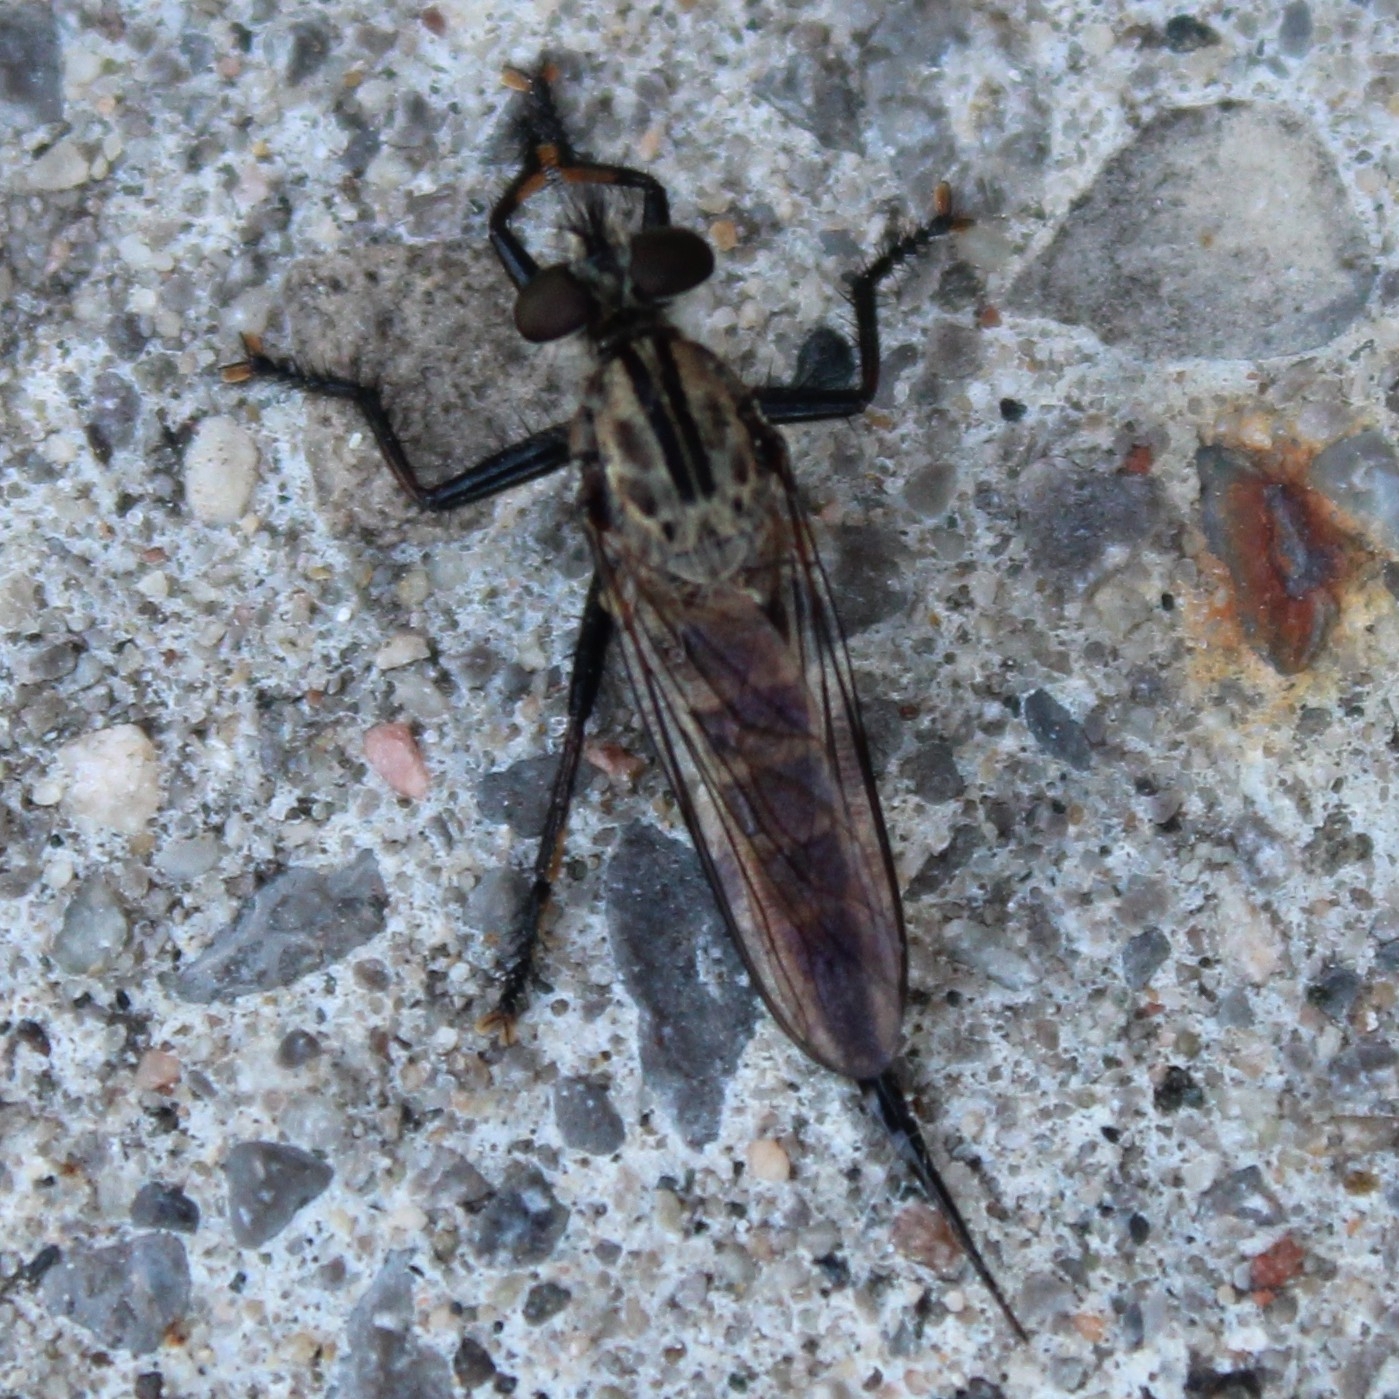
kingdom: Animalia
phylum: Arthropoda
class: Insecta
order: Diptera
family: Asilidae
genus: Efferia
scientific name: Efferia aestuans
